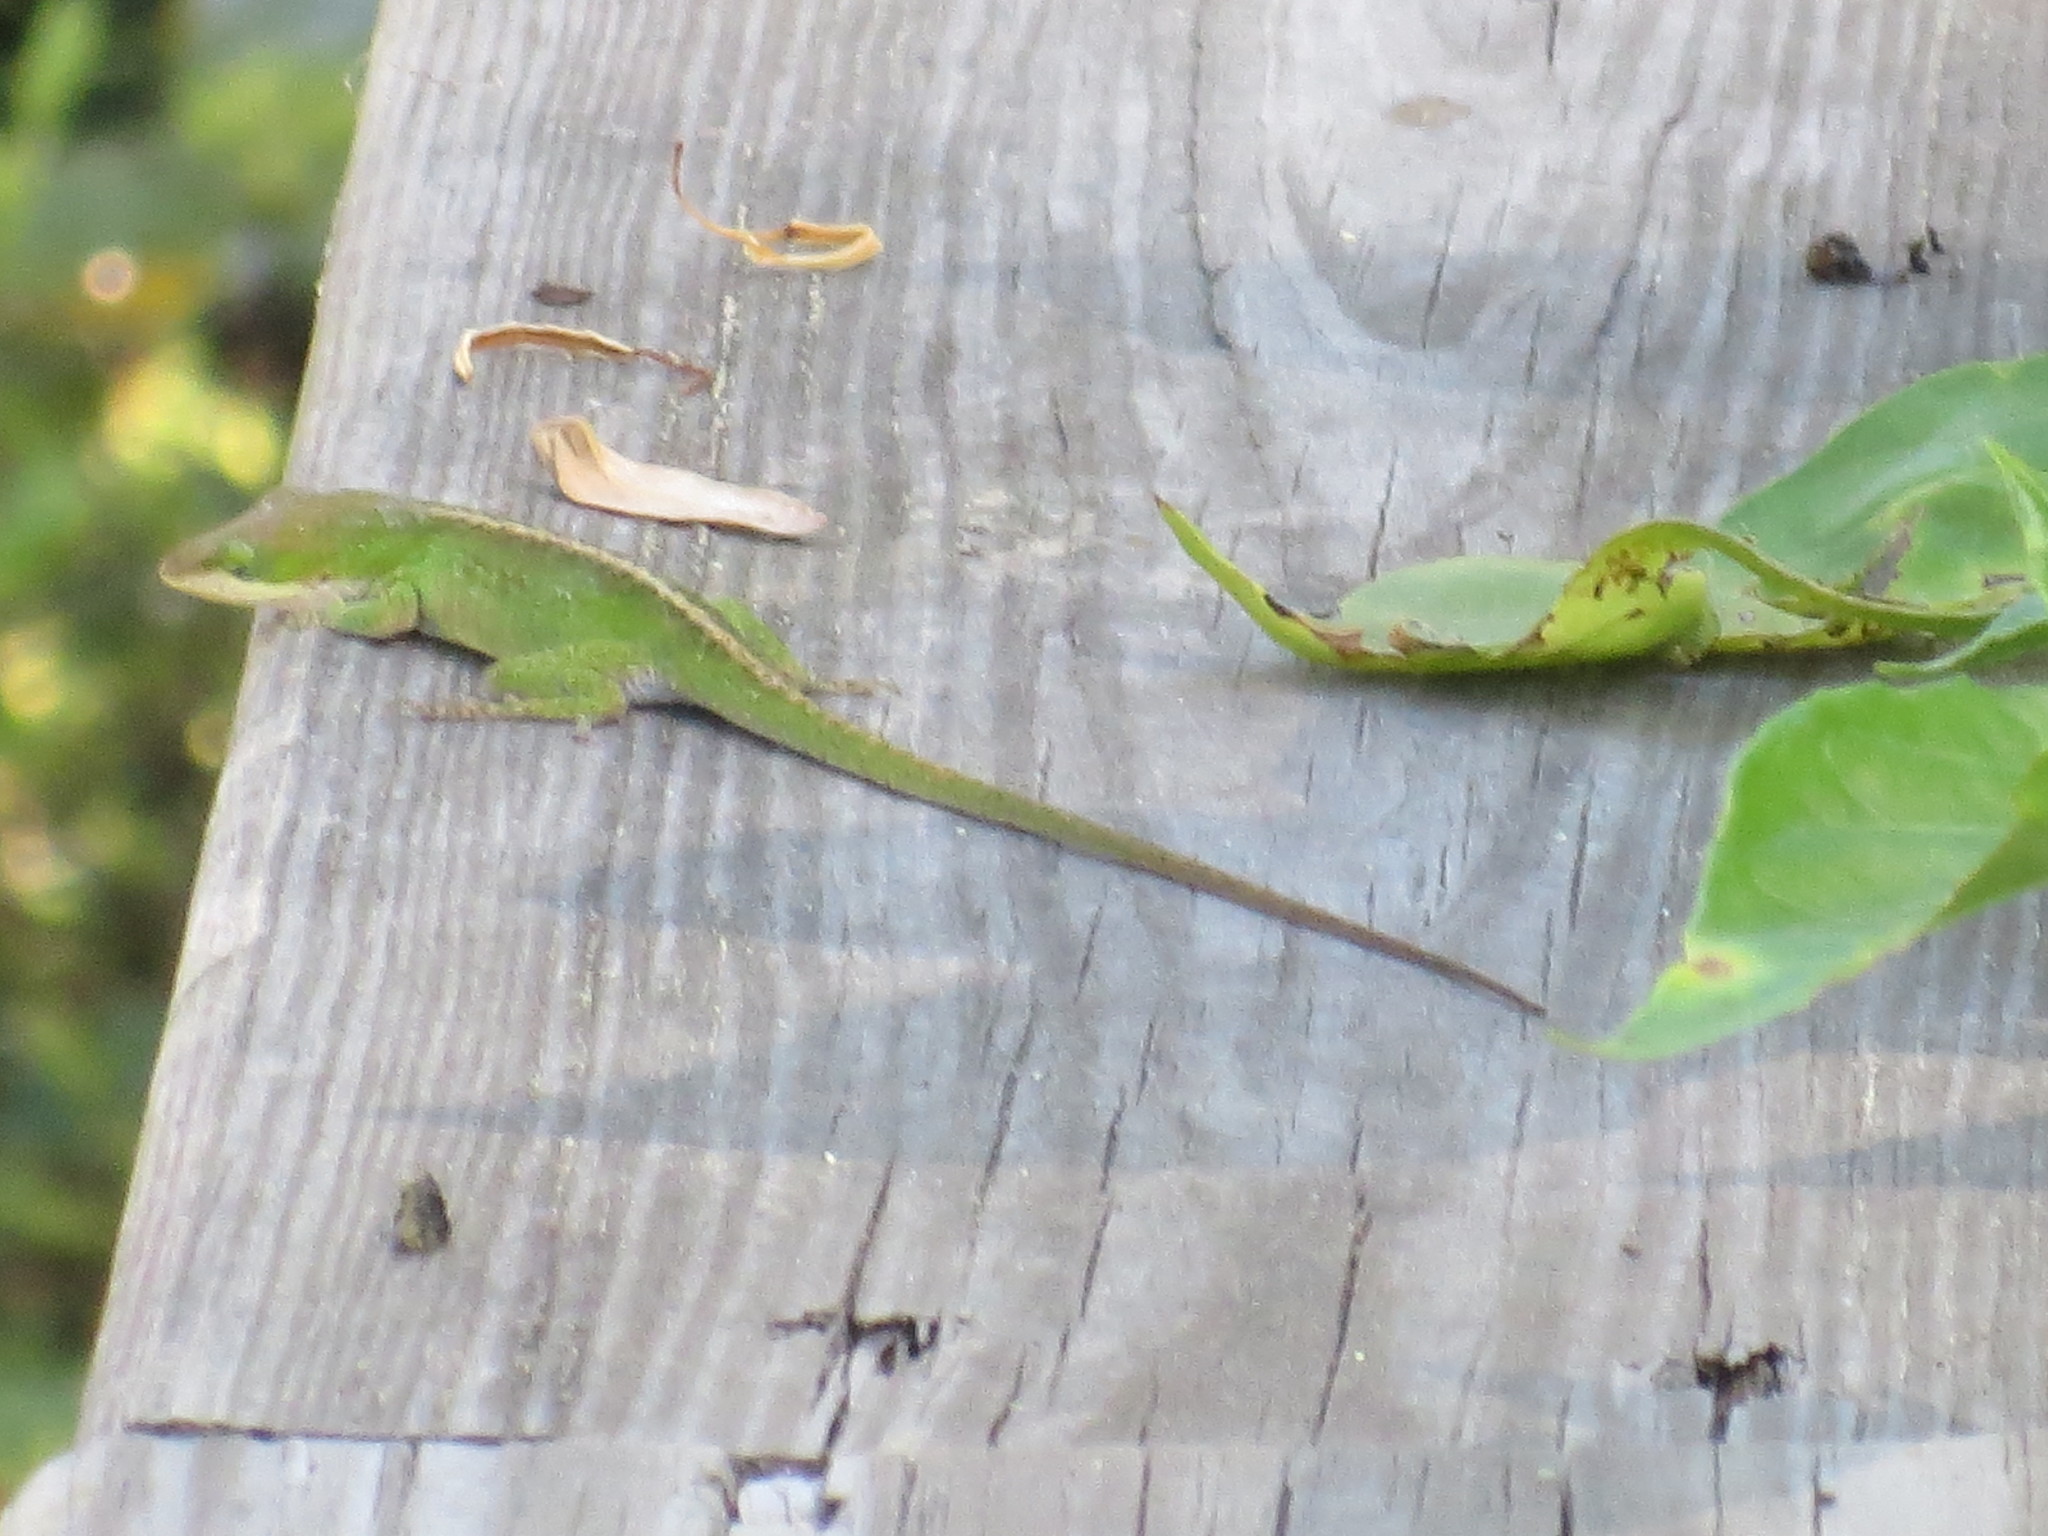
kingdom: Animalia
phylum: Chordata
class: Squamata
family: Dactyloidae
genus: Anolis
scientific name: Anolis carolinensis
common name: Green anole
